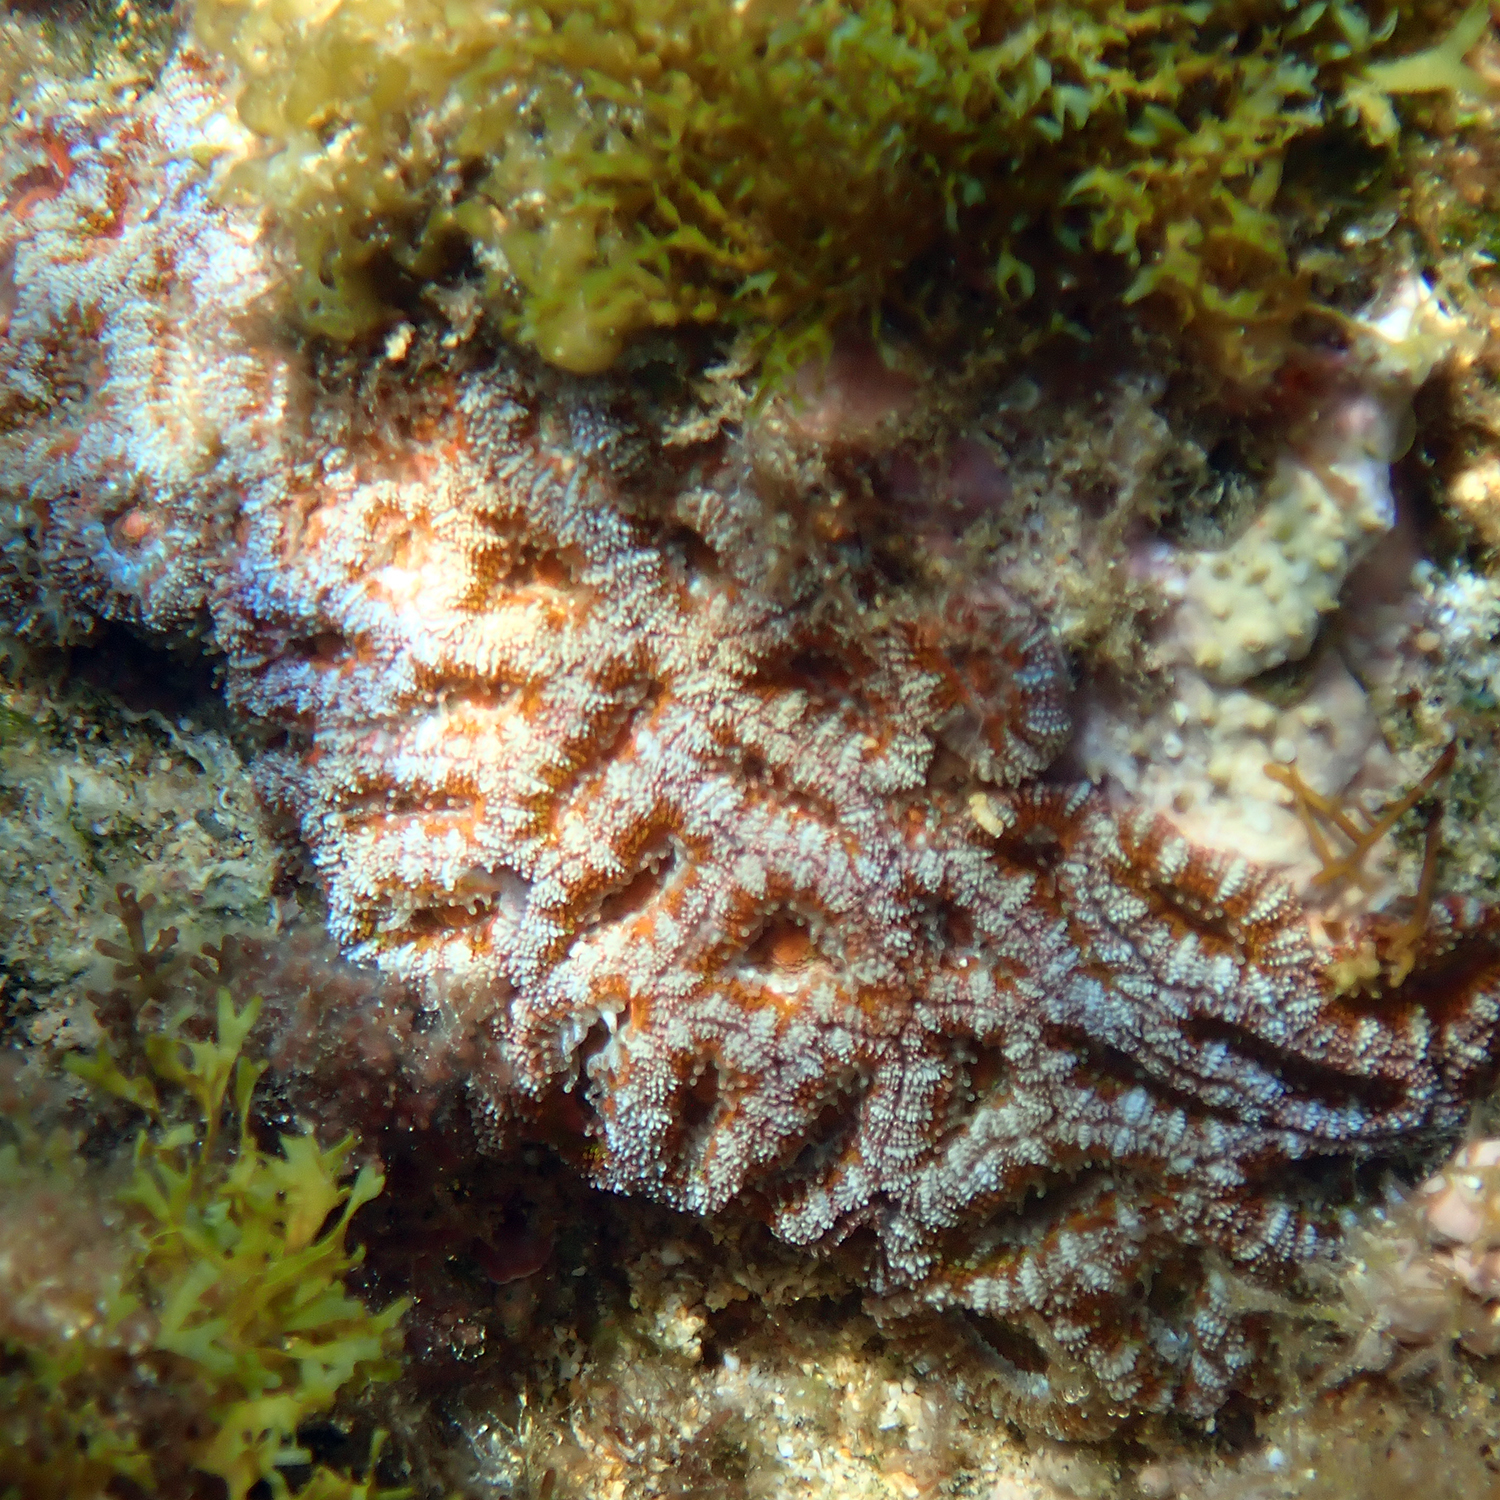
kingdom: Animalia
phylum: Cnidaria
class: Anthozoa
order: Scleractinia
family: Lobophylliidae
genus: Micromussa
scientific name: Micromussa lordhowensis
